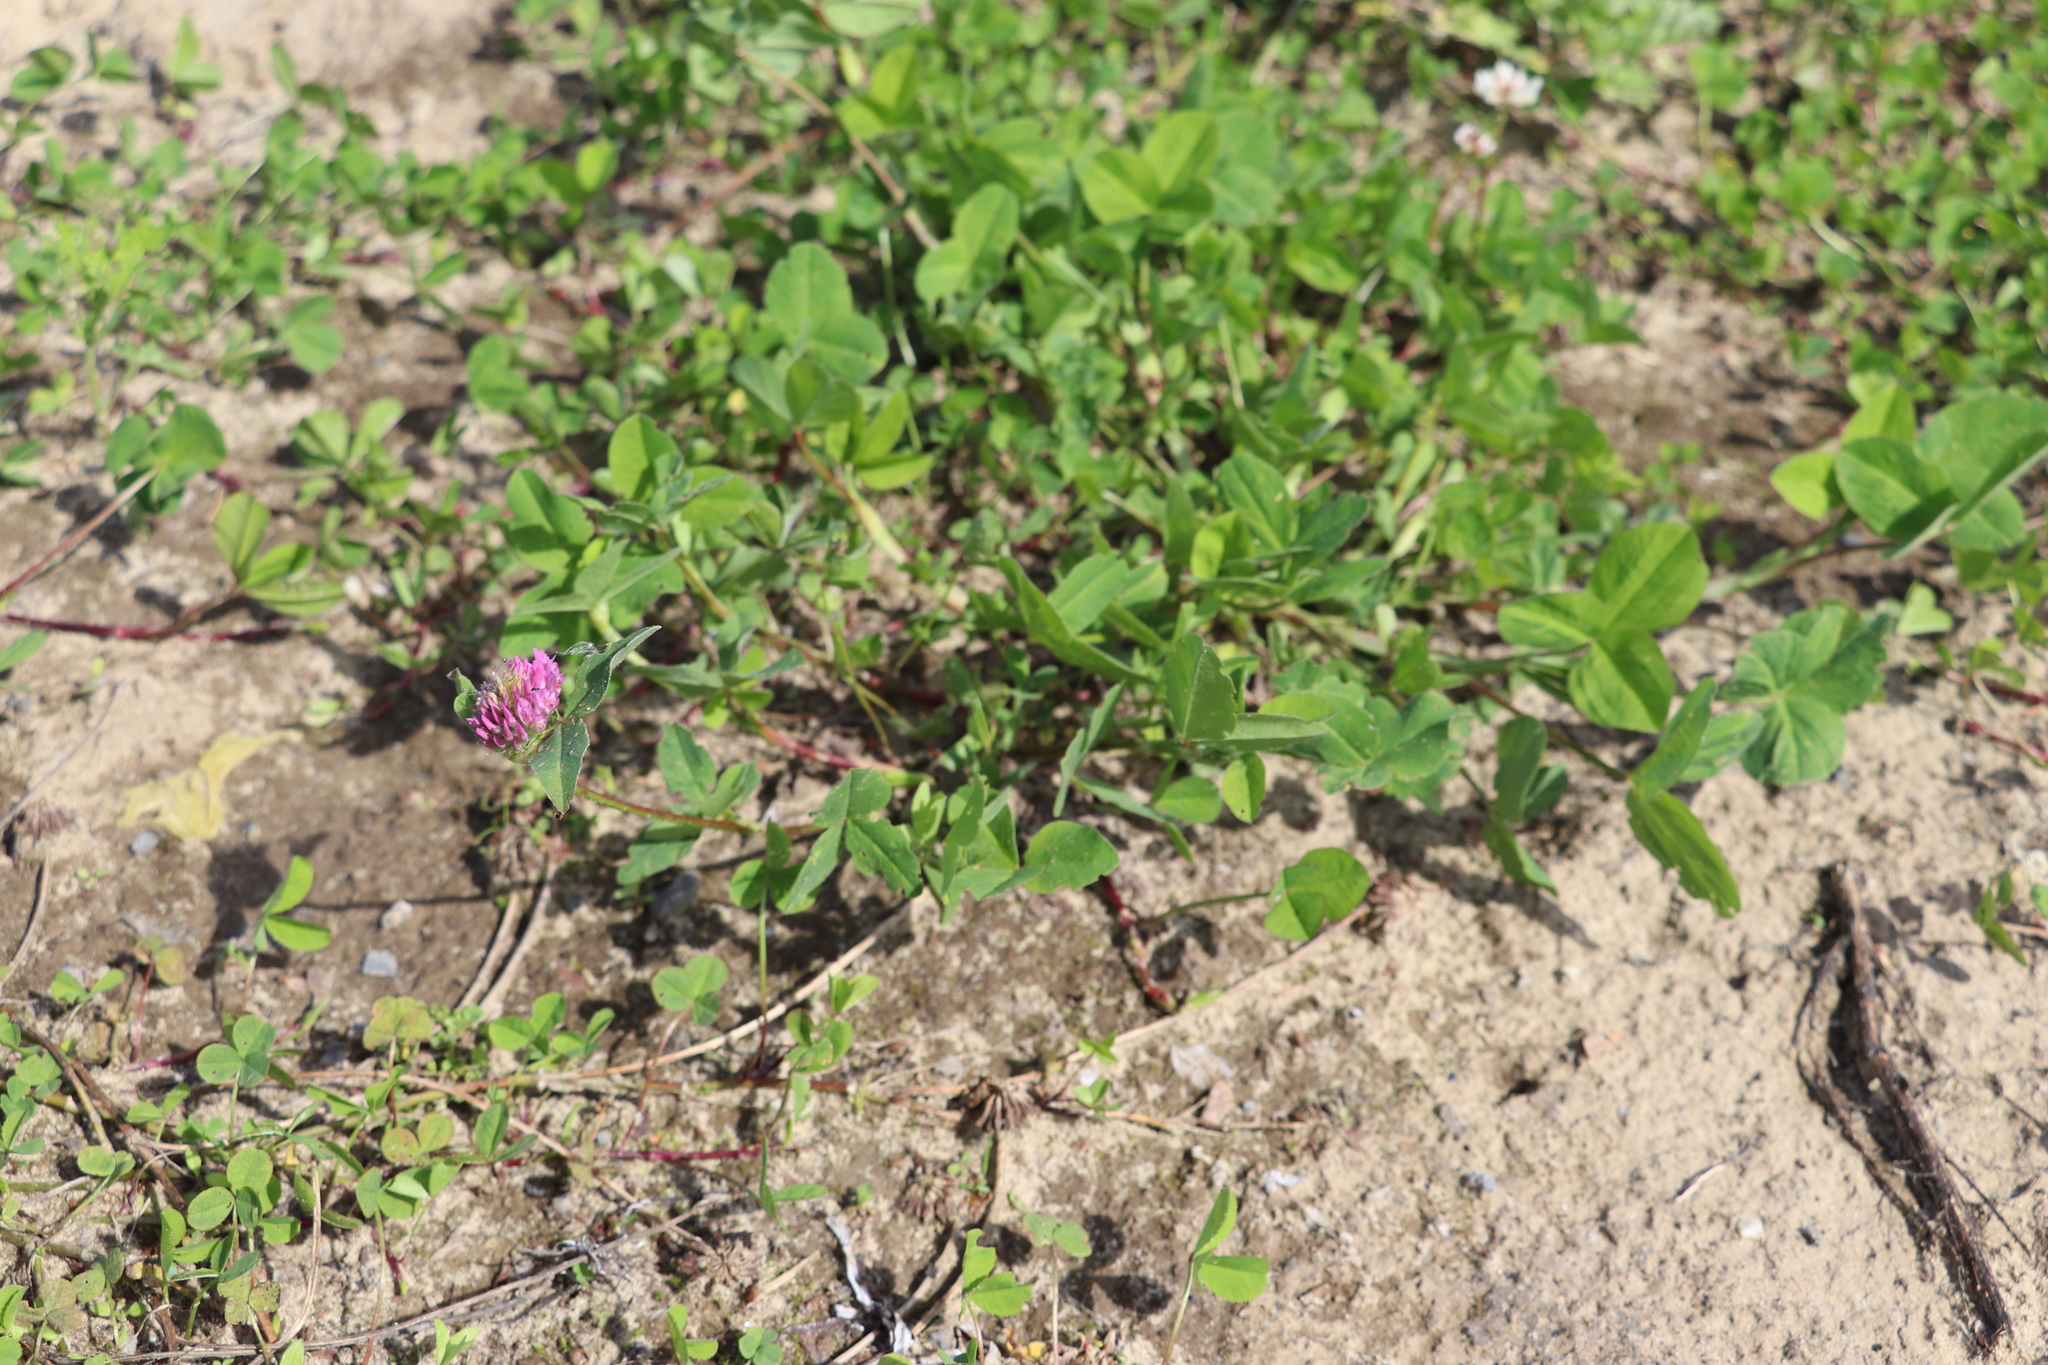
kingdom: Plantae
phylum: Tracheophyta
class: Magnoliopsida
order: Fabales
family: Fabaceae
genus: Trifolium
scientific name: Trifolium pratense
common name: Red clover
